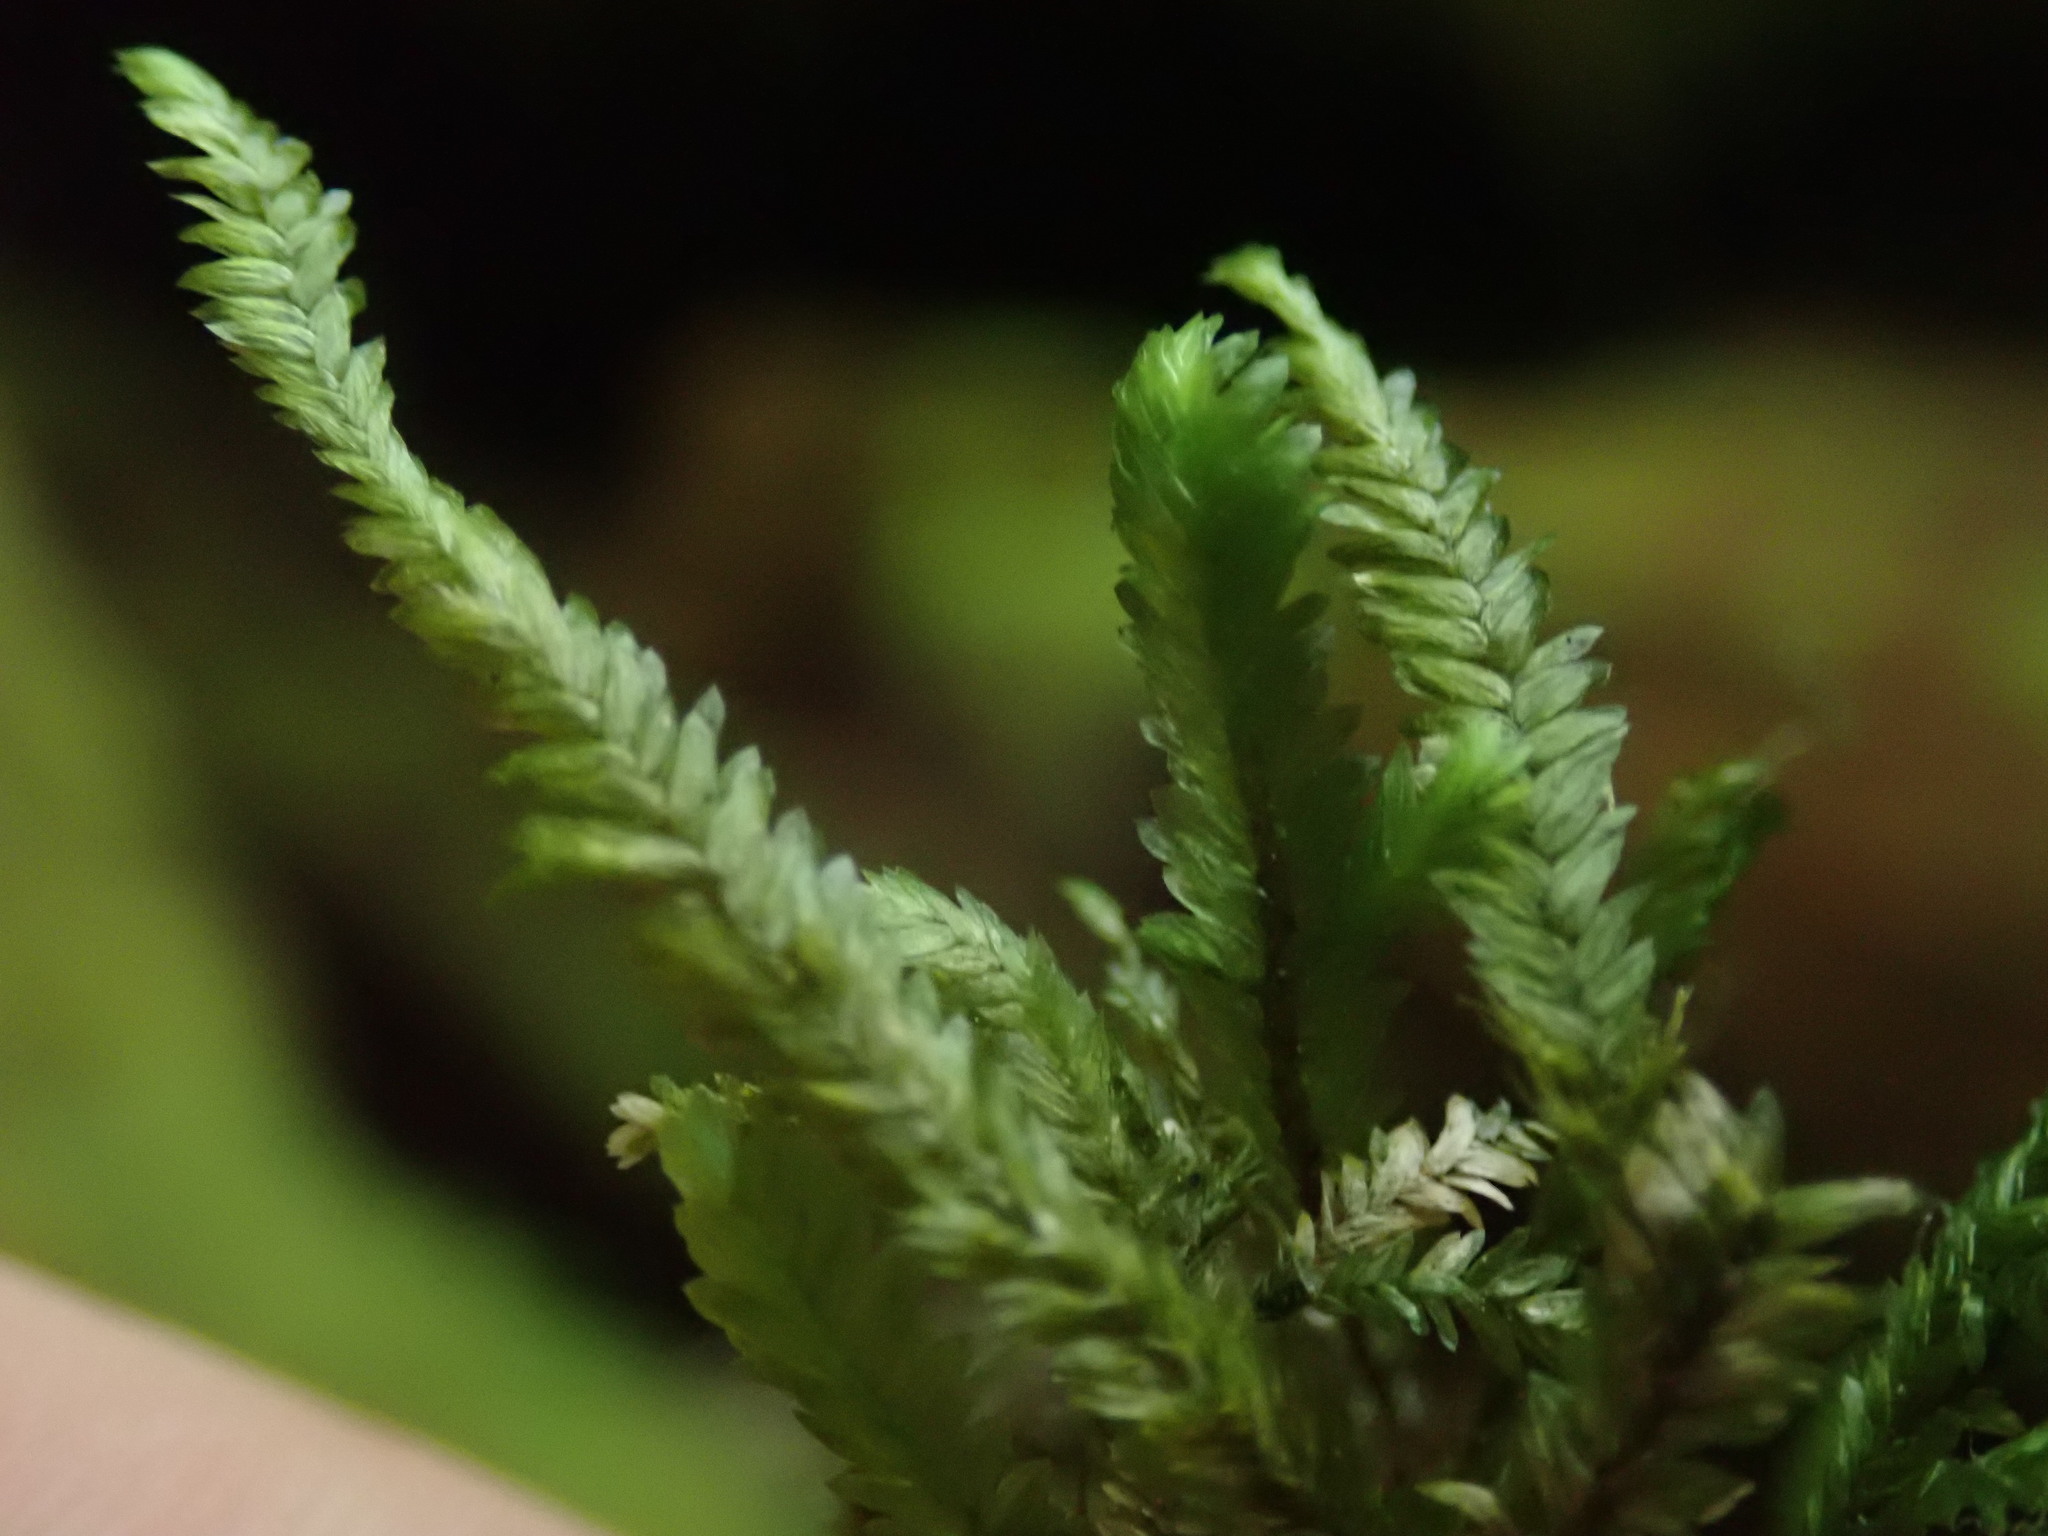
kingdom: Plantae
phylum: Bryophyta
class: Bryopsida
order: Hypnales
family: Neckeraceae
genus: Dannorrisia
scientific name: Dannorrisia bigelovii
